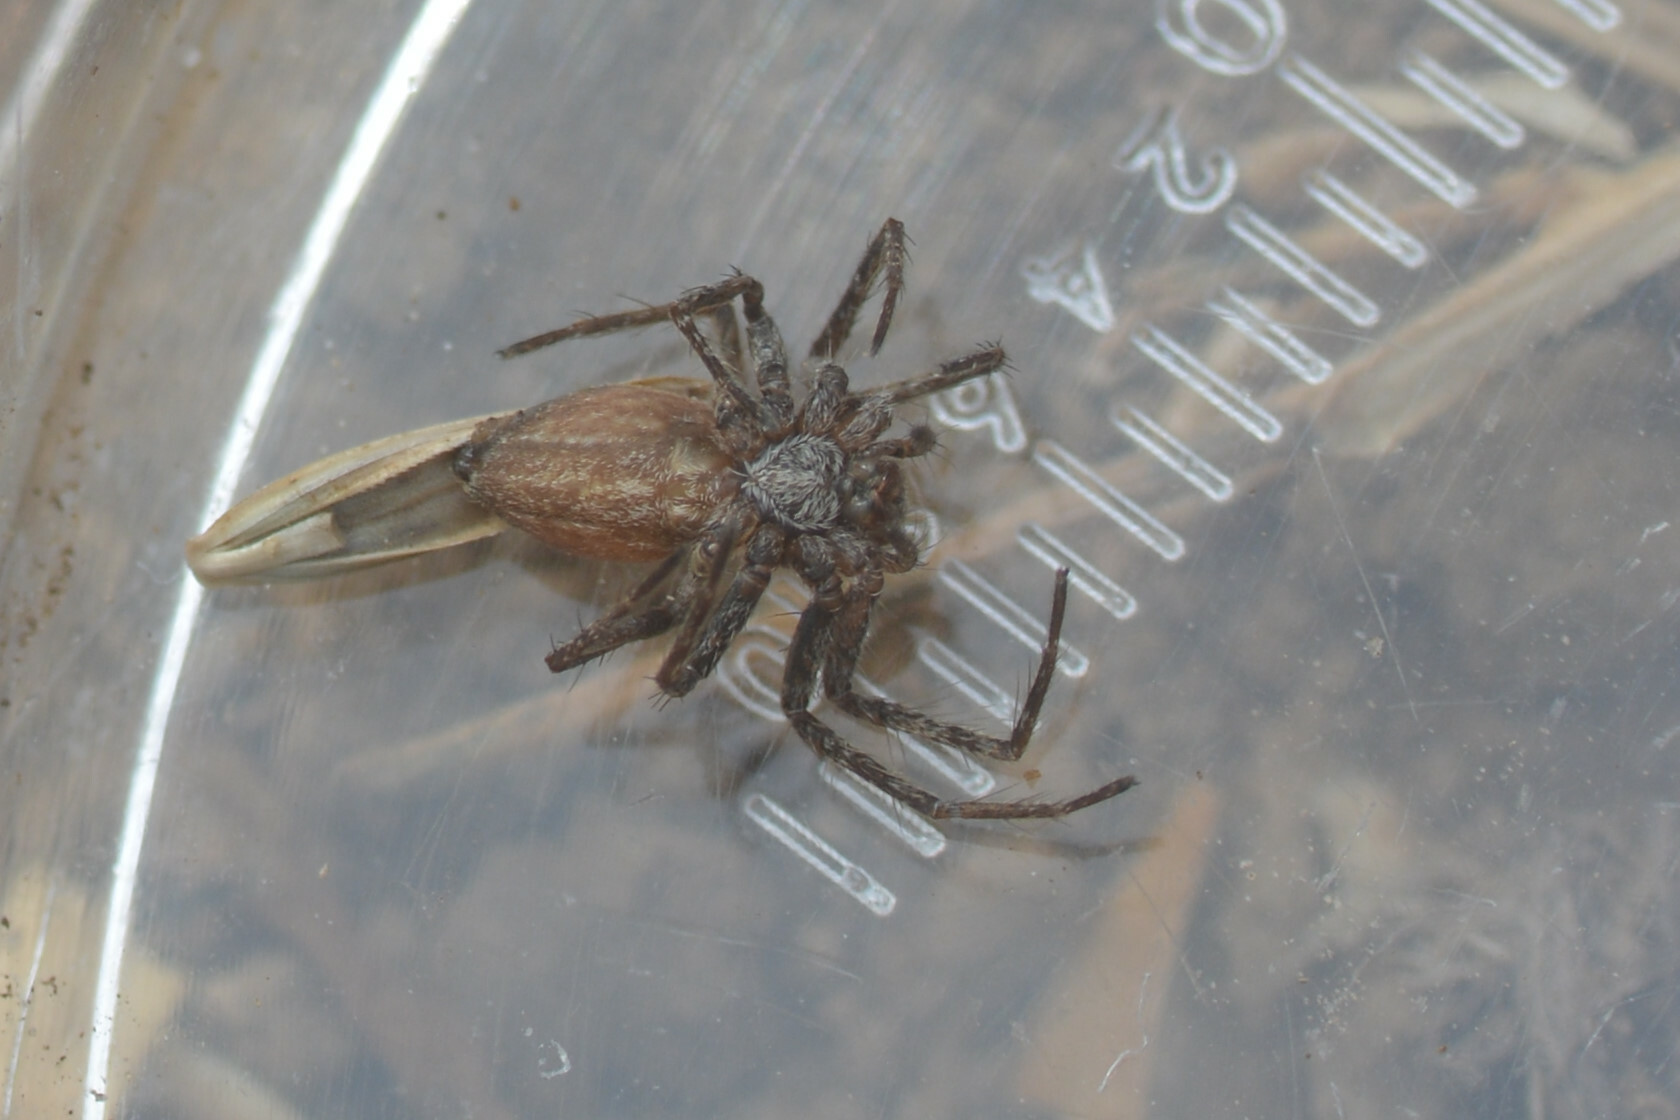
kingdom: Animalia
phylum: Arthropoda
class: Arachnida
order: Araneae
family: Pisauridae
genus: Pisaura
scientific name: Pisaura mirabilis
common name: Tent spider
